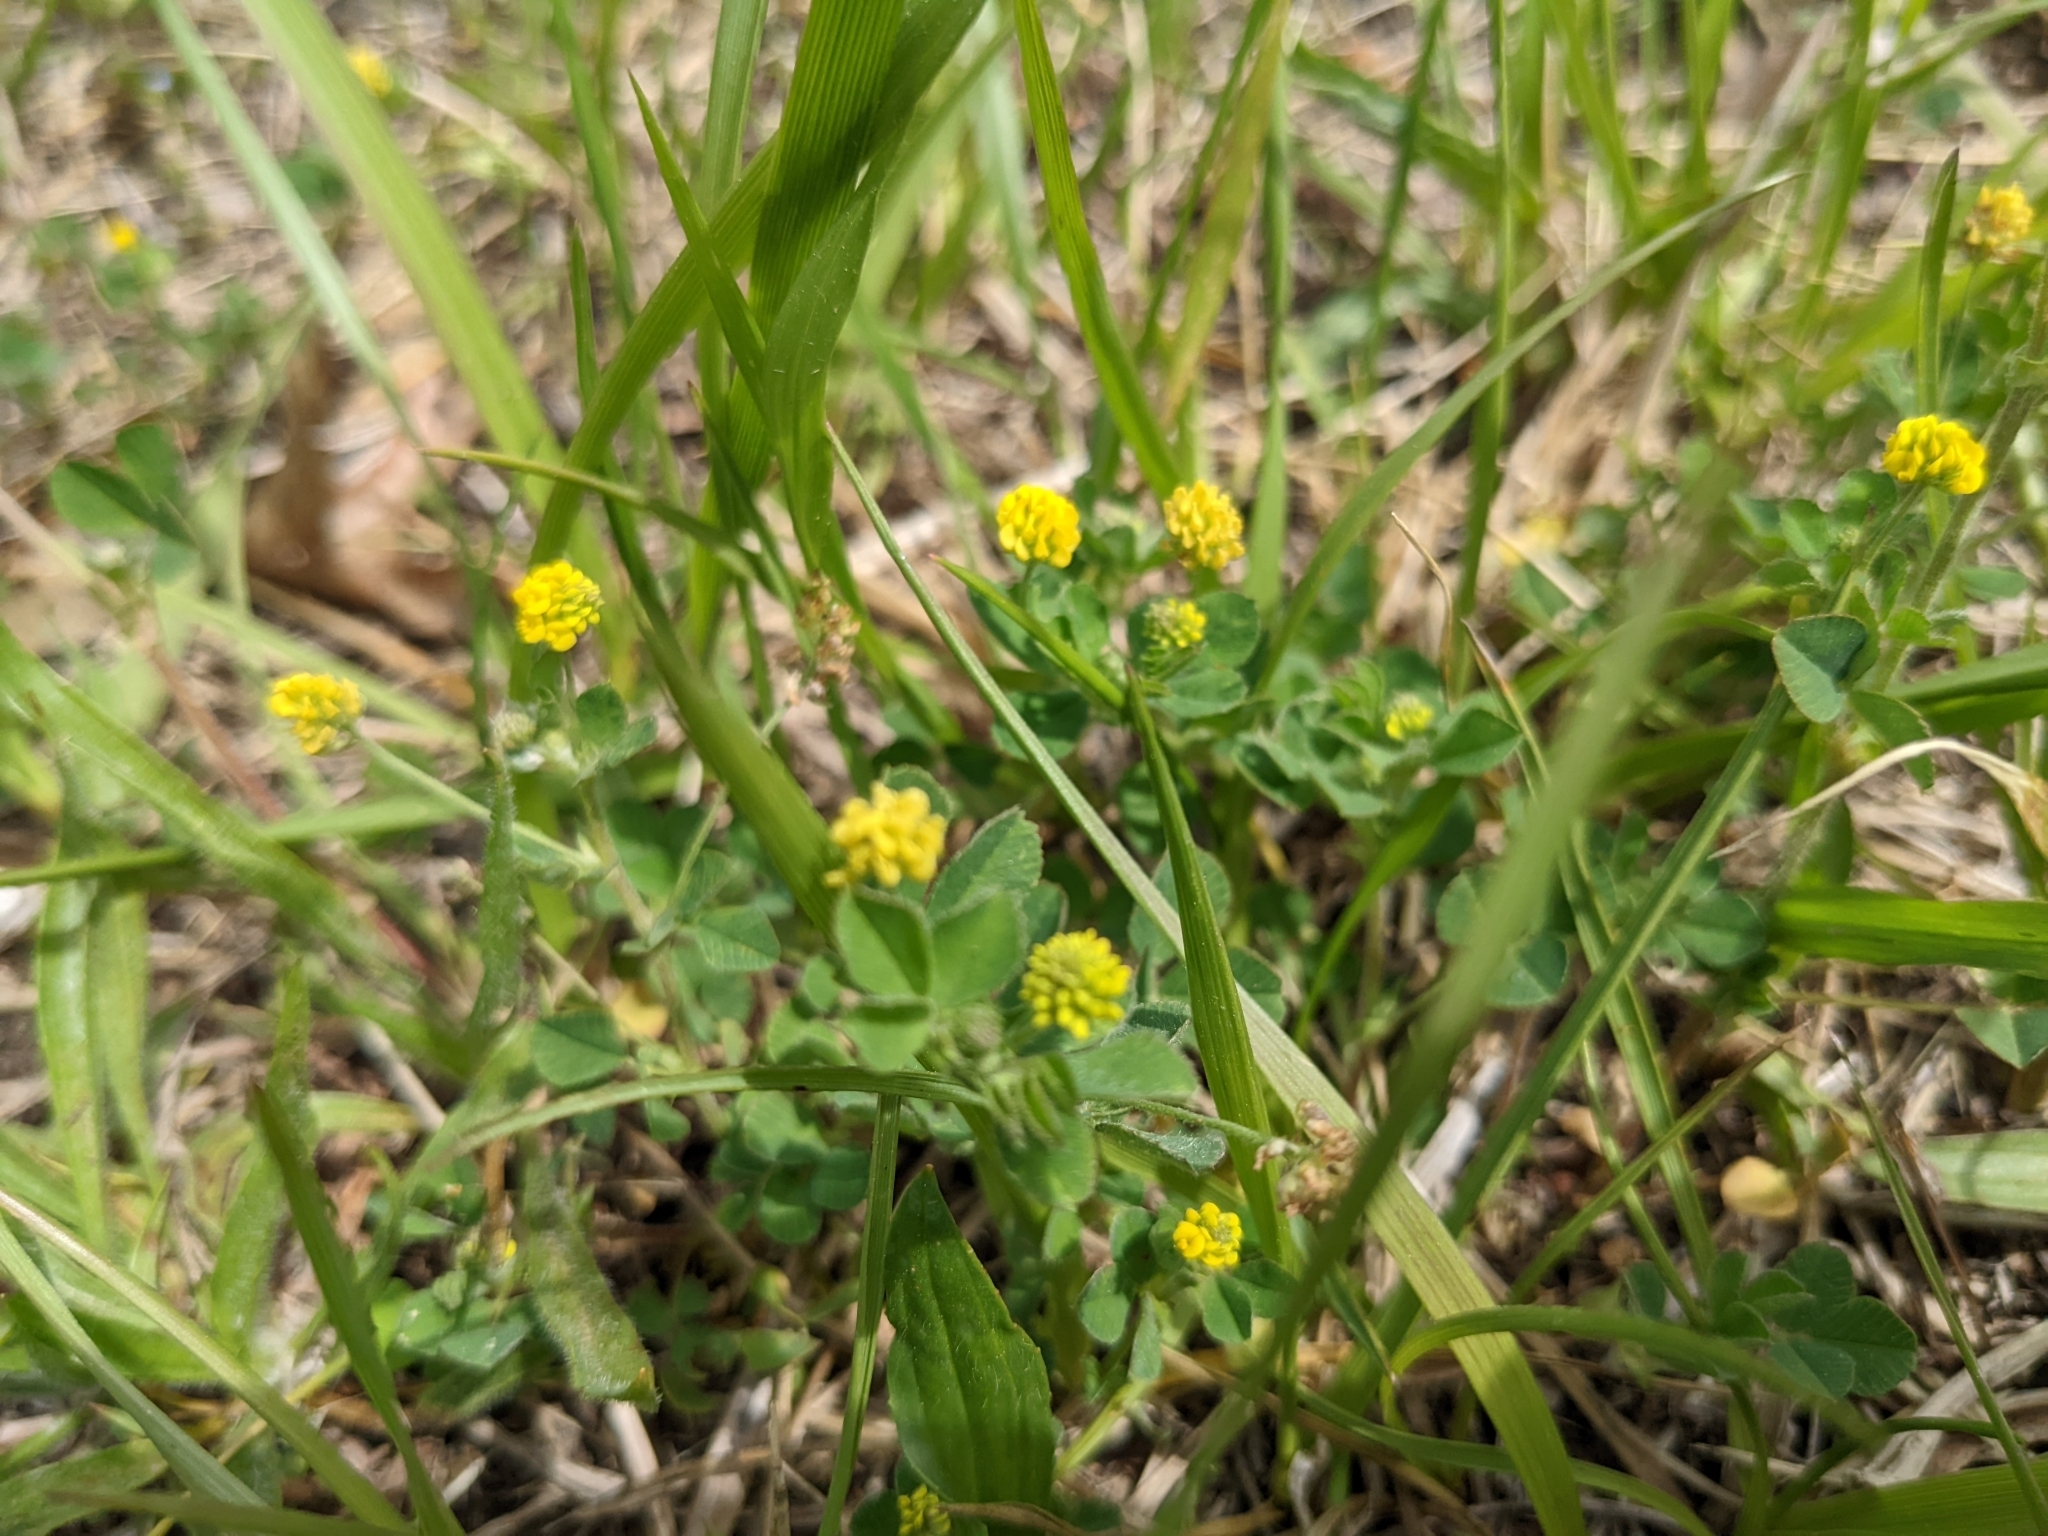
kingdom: Plantae
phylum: Tracheophyta
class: Magnoliopsida
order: Fabales
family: Fabaceae
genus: Medicago
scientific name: Medicago lupulina
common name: Black medick
